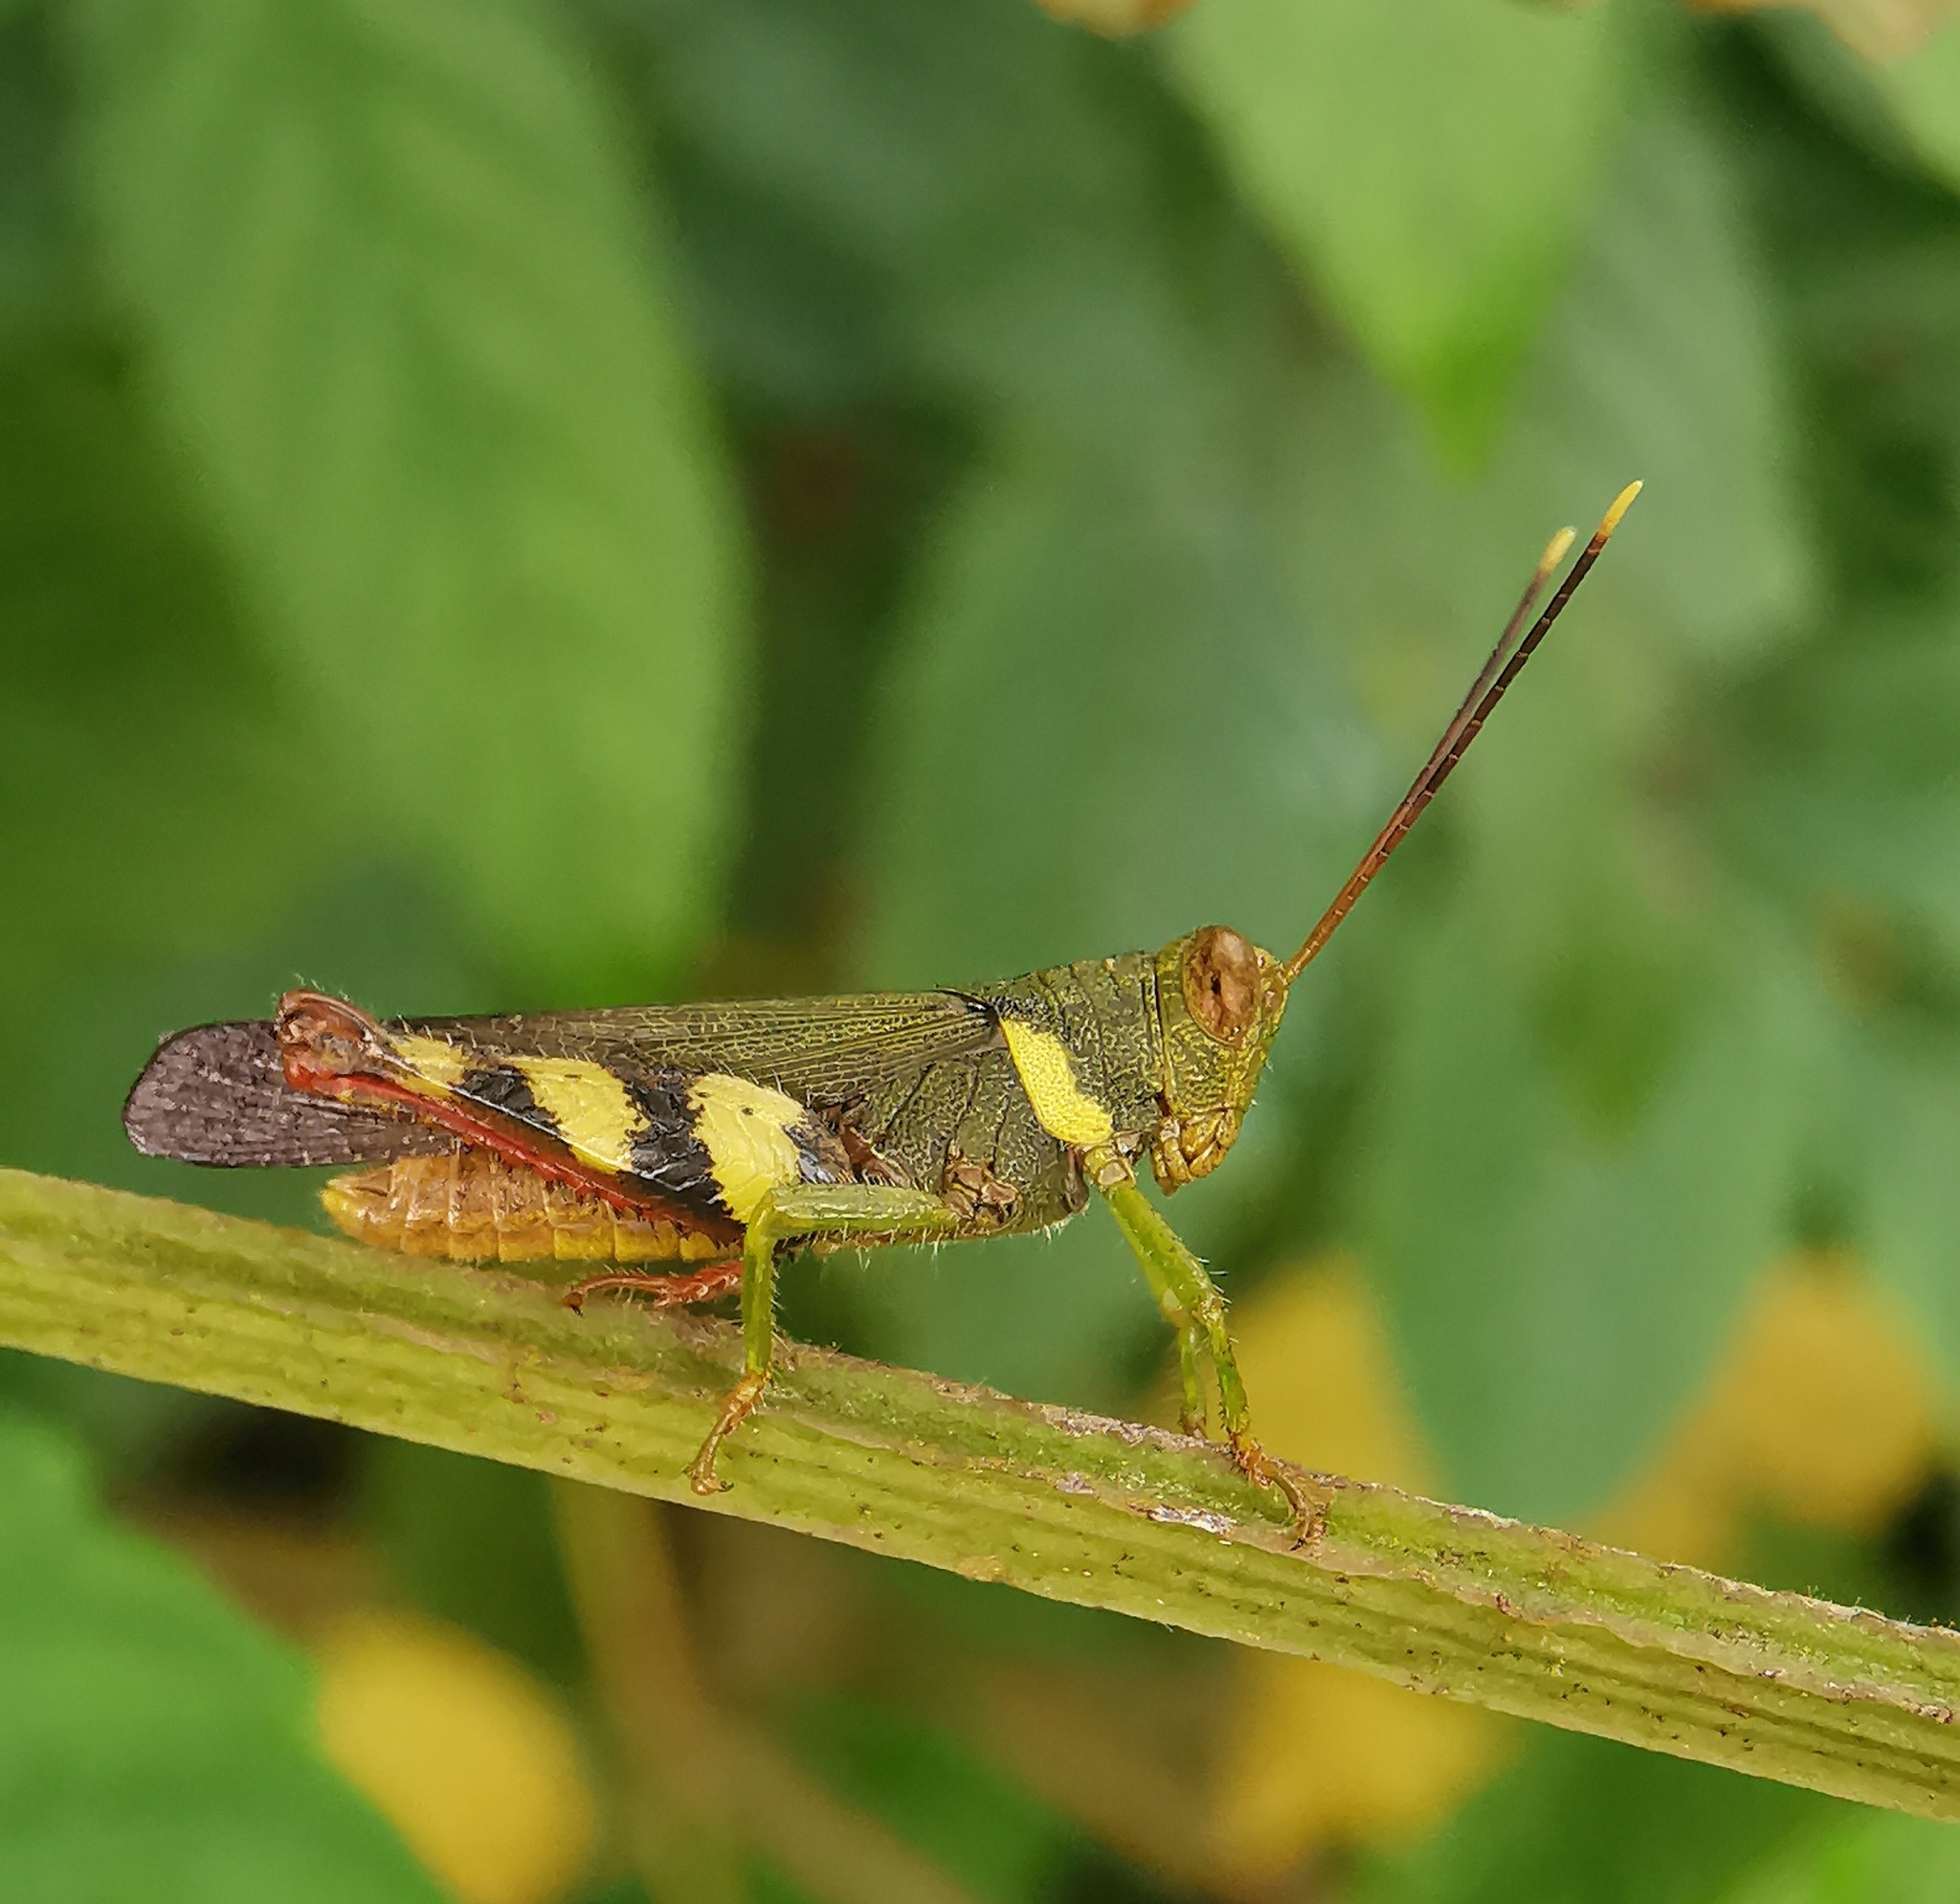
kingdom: Animalia
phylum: Arthropoda
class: Insecta
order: Orthoptera
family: Acrididae
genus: Apalacris
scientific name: Apalacris varicornis
